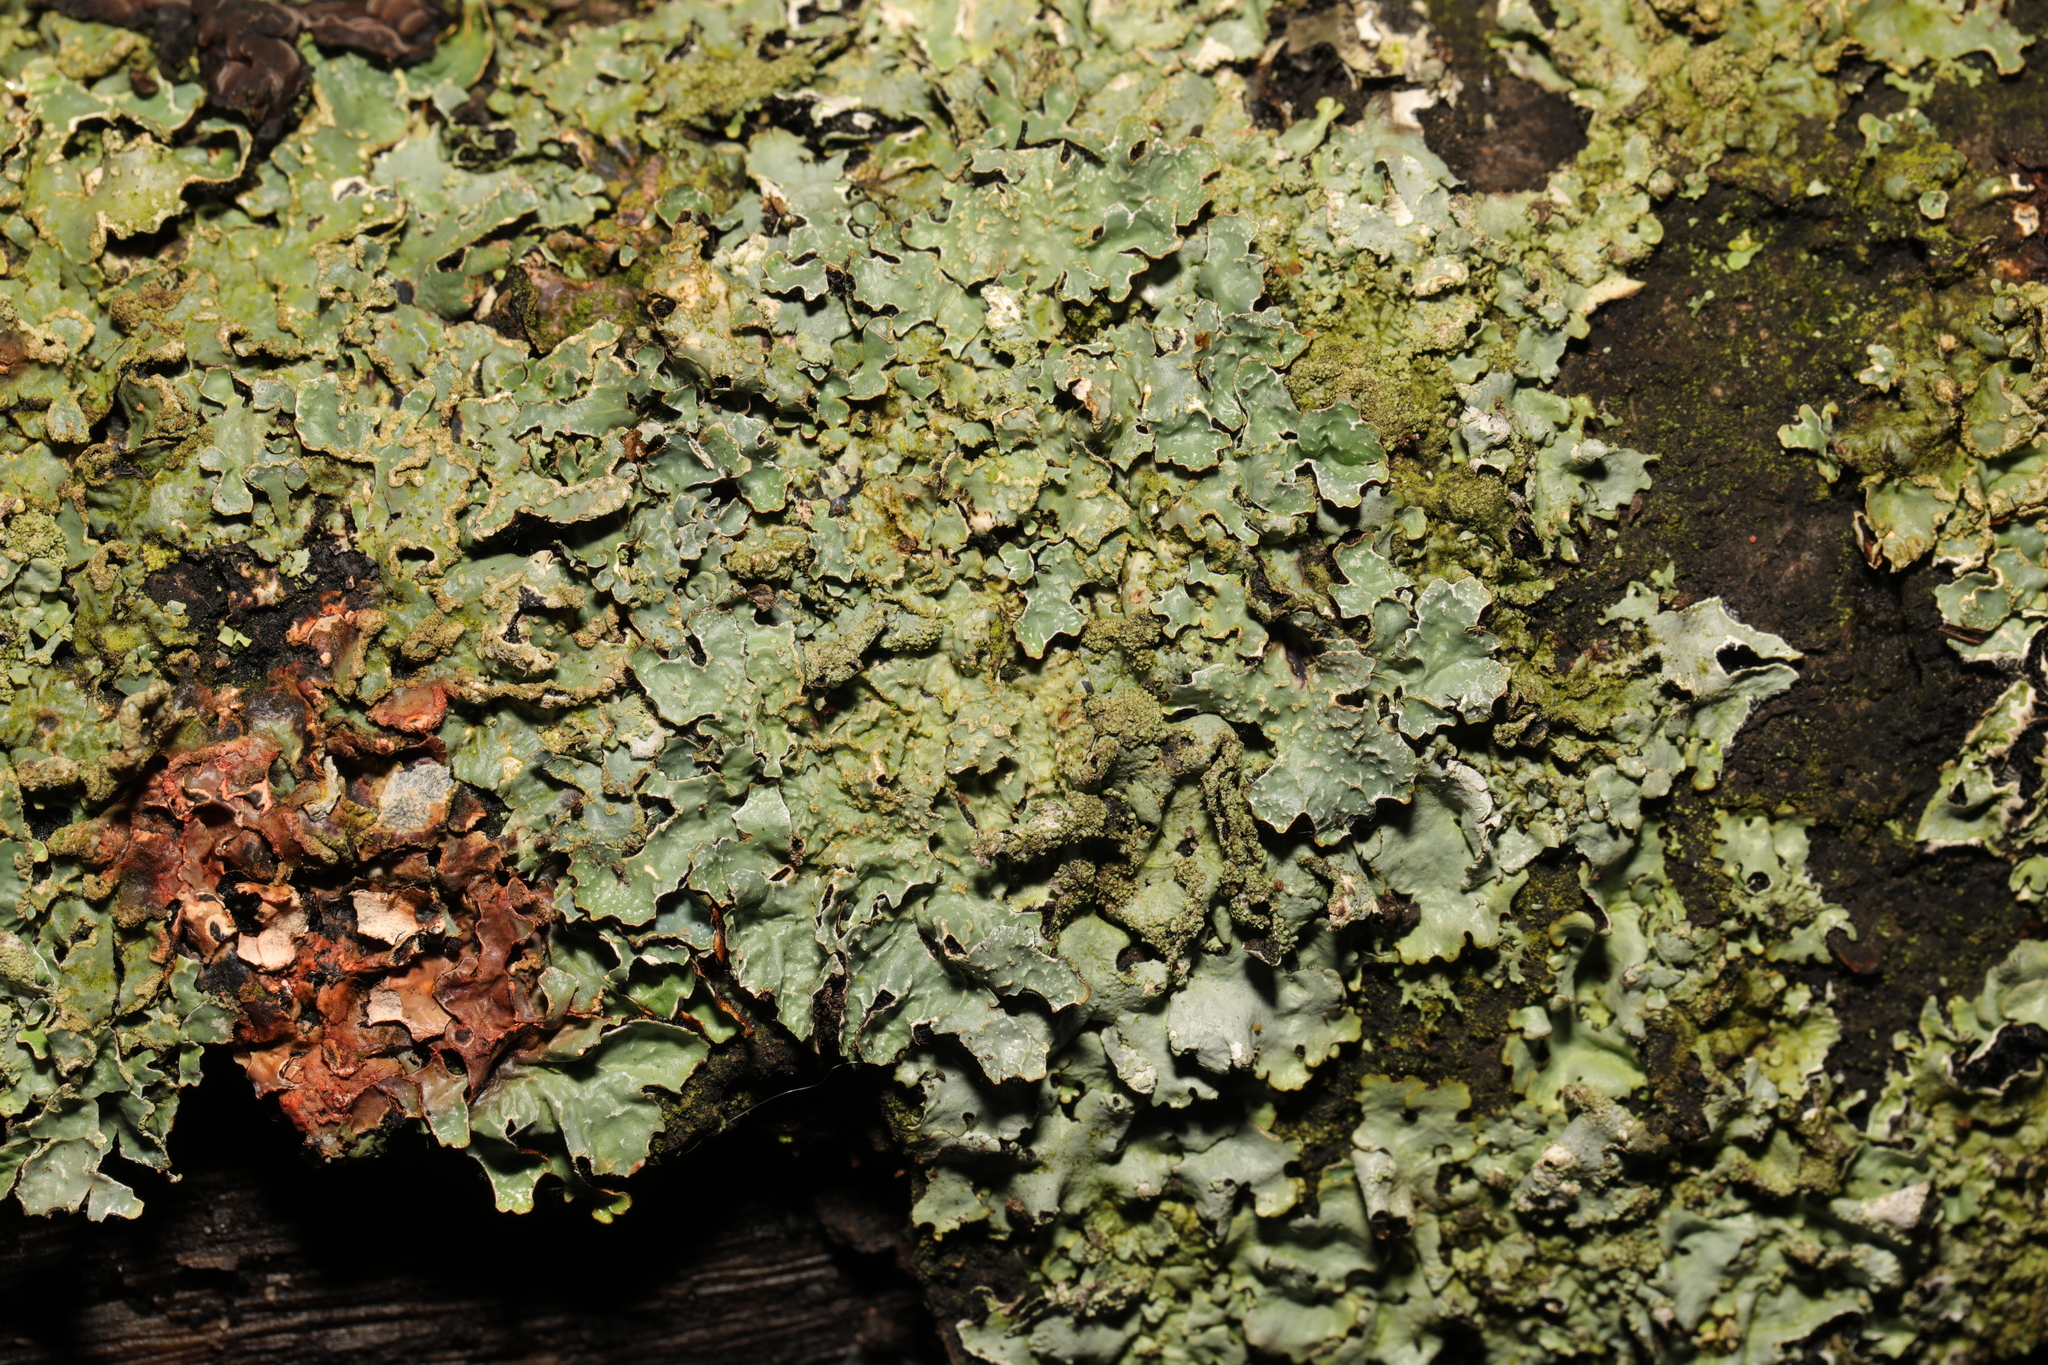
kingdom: Fungi
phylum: Ascomycota
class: Lecanoromycetes
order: Lecanorales
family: Parmeliaceae
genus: Parmelia
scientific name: Parmelia sulcata
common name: Netted shield lichen
